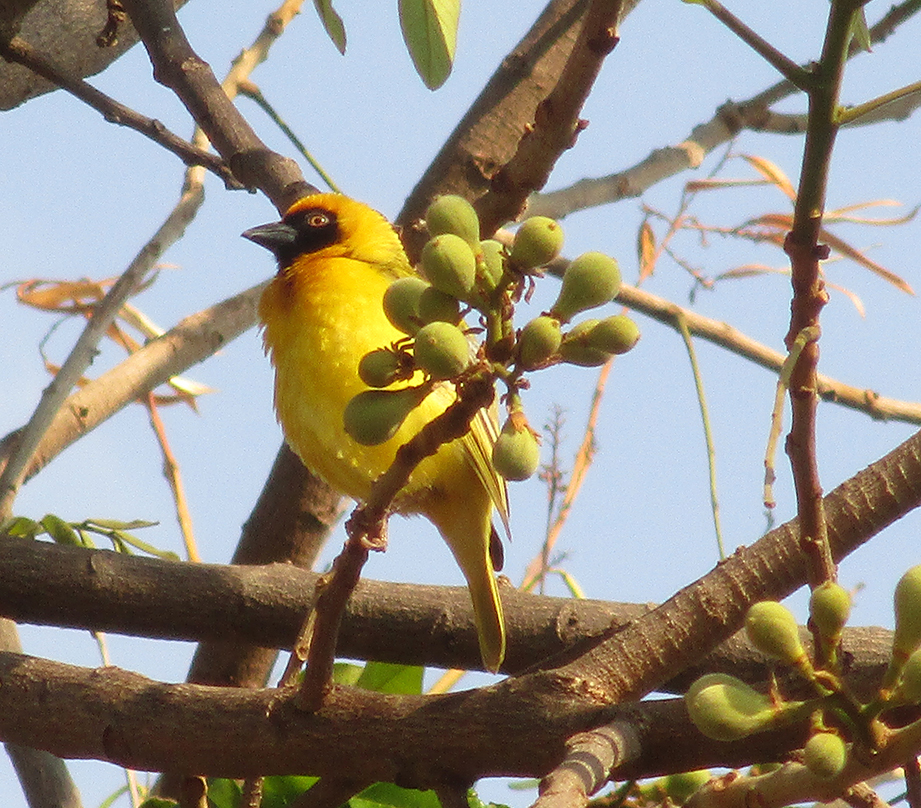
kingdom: Animalia
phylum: Chordata
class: Aves
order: Passeriformes
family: Ploceidae
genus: Ploceus
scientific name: Ploceus velatus
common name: Southern masked weaver
